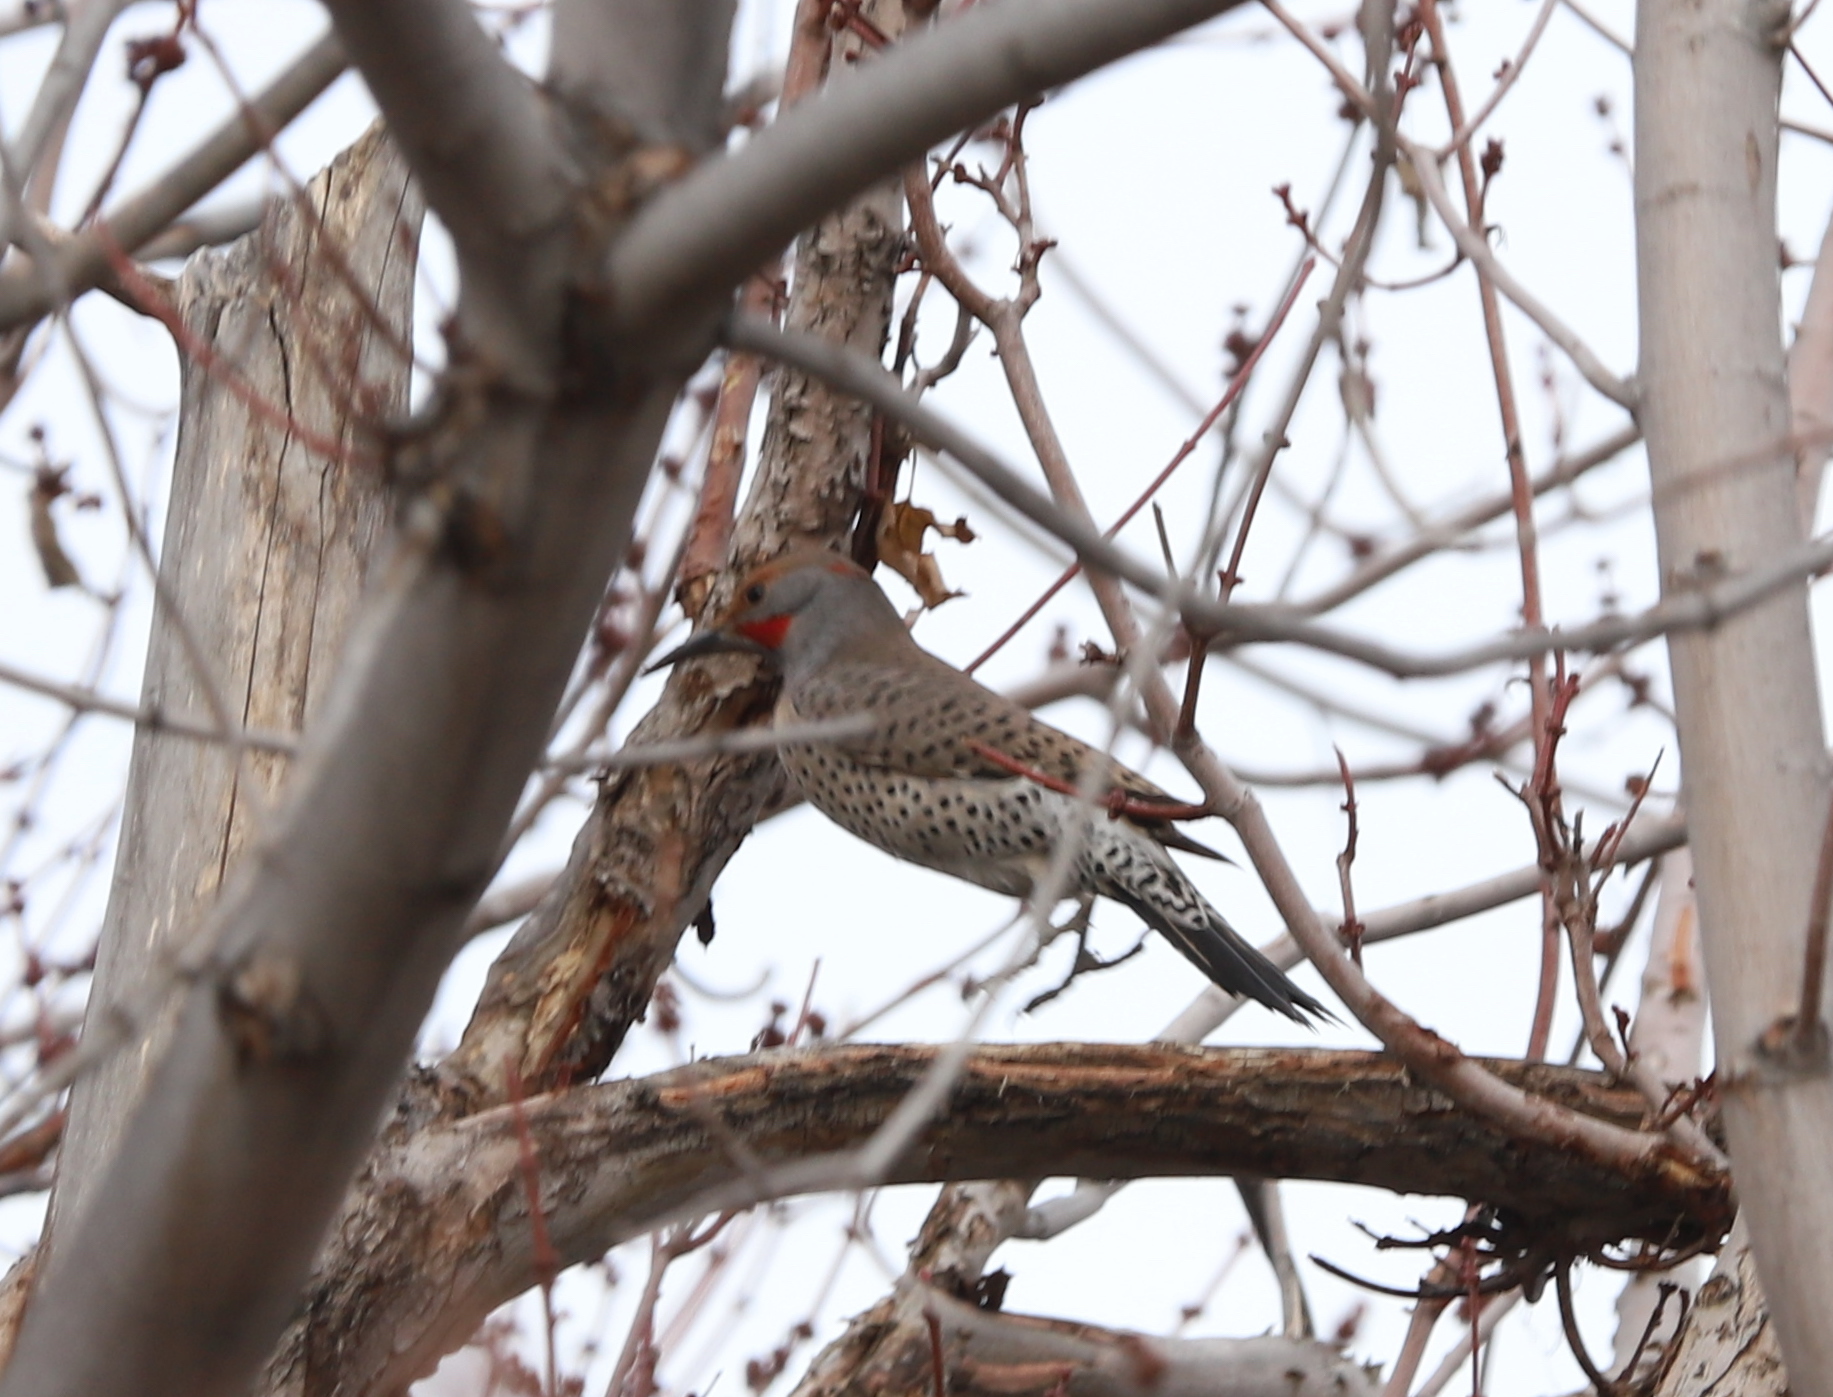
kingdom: Animalia
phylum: Chordata
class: Aves
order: Piciformes
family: Picidae
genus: Colaptes
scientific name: Colaptes auratus
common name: Northern flicker
